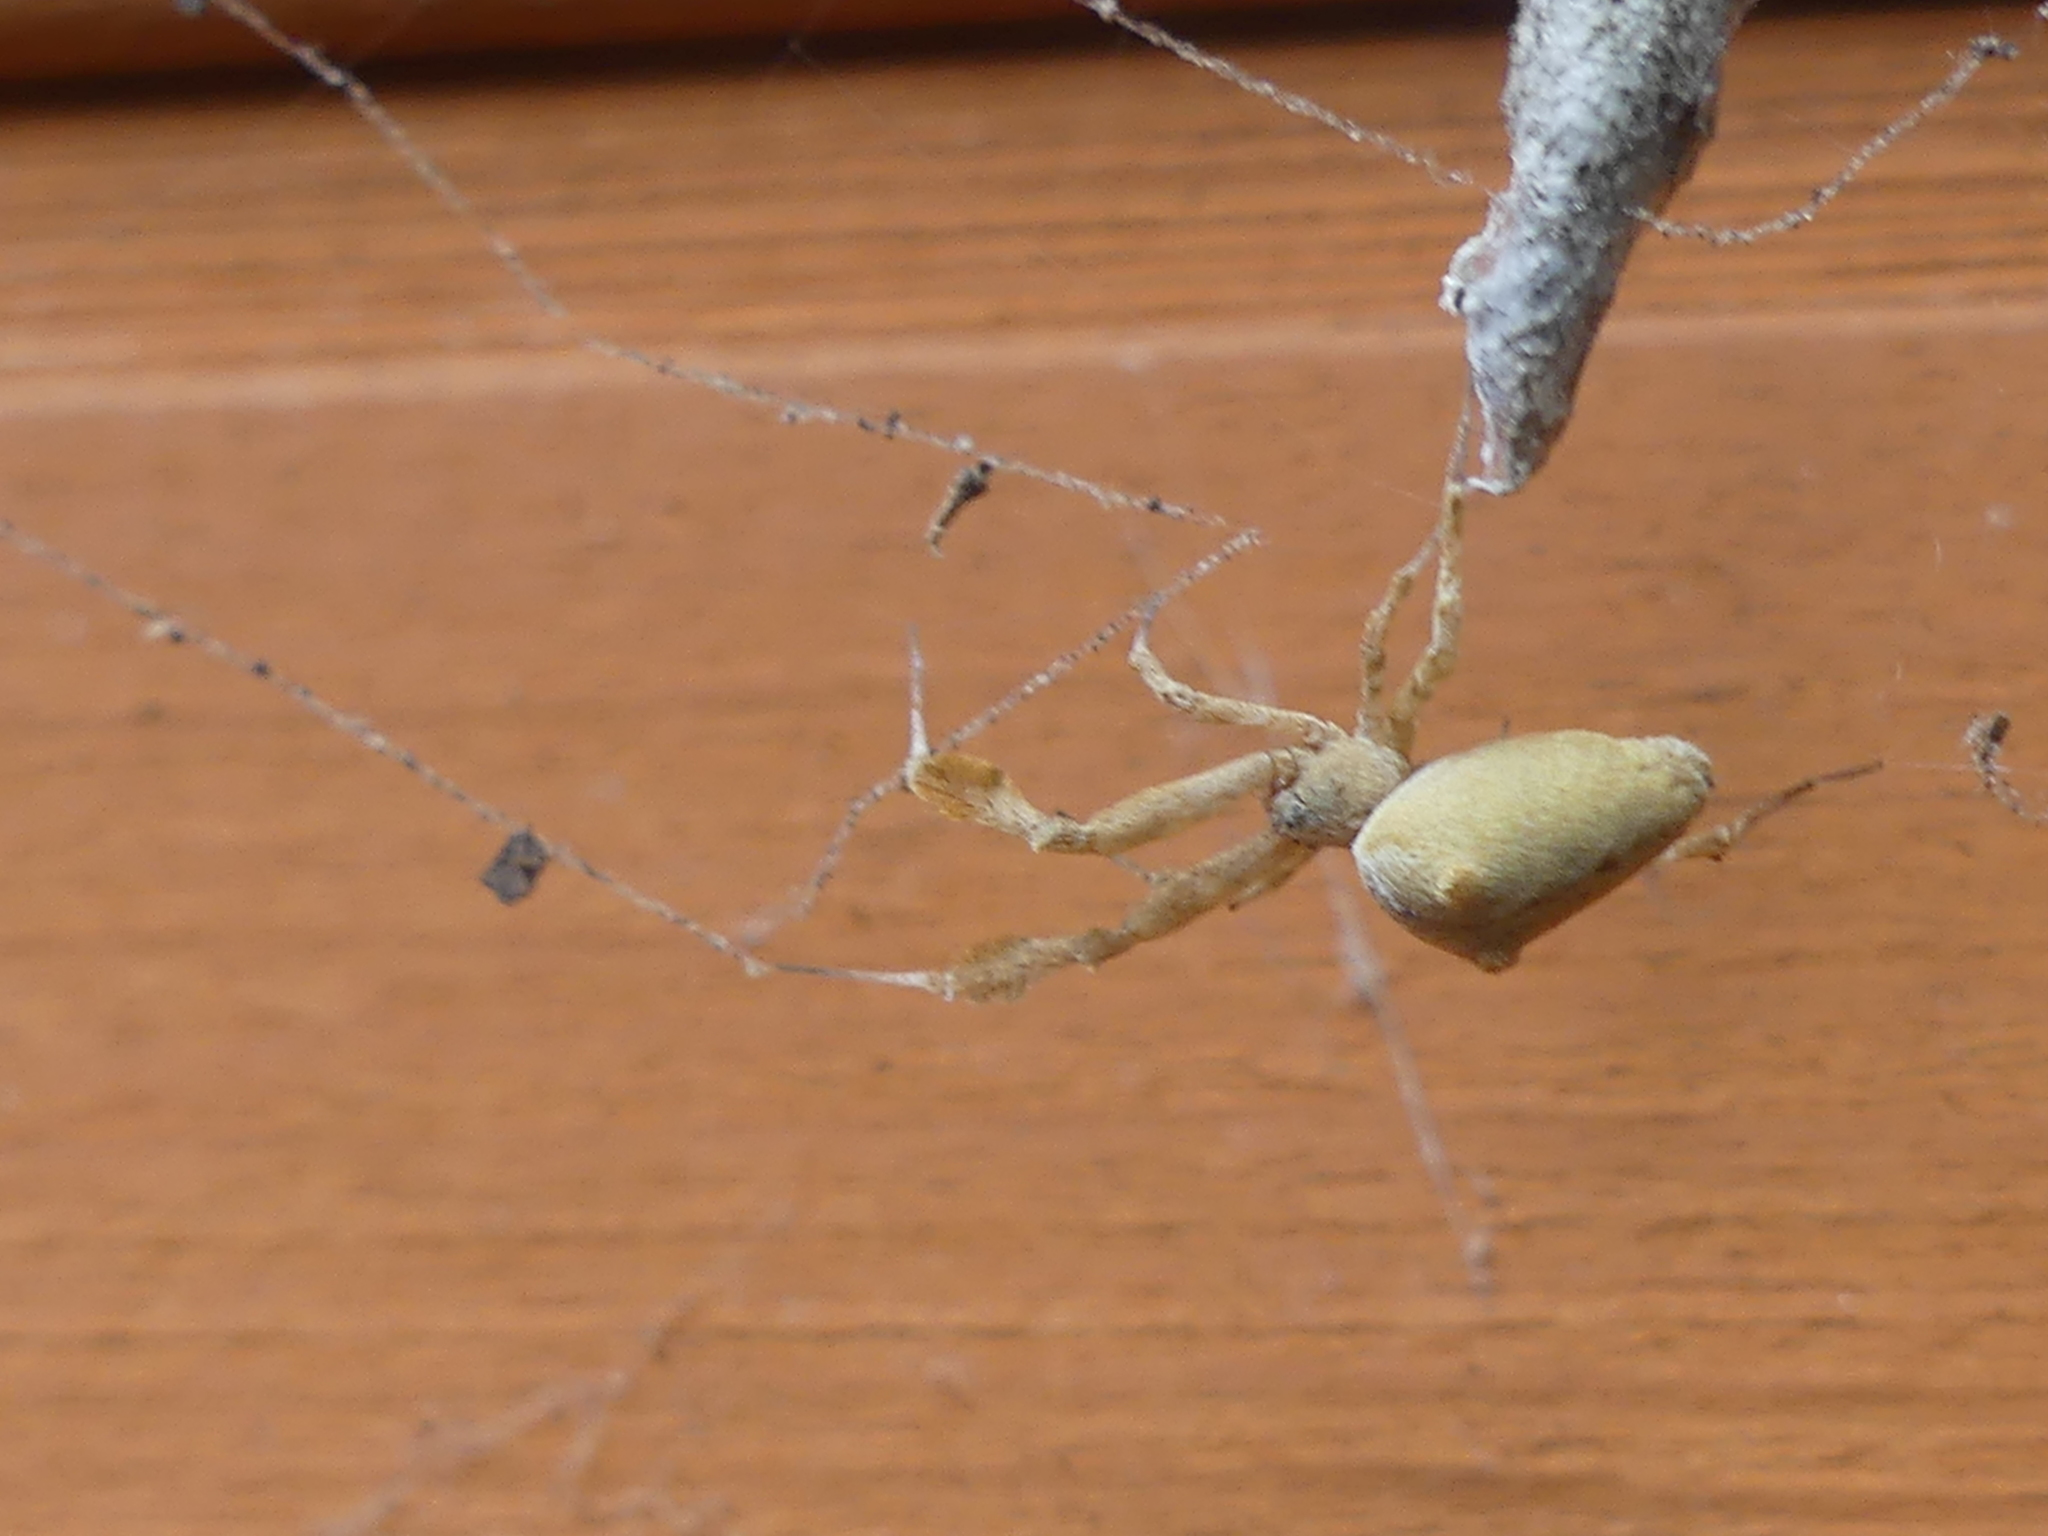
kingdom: Animalia
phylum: Arthropoda
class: Arachnida
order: Araneae
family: Uloboridae
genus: Uloborus
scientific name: Uloborus glomosus
